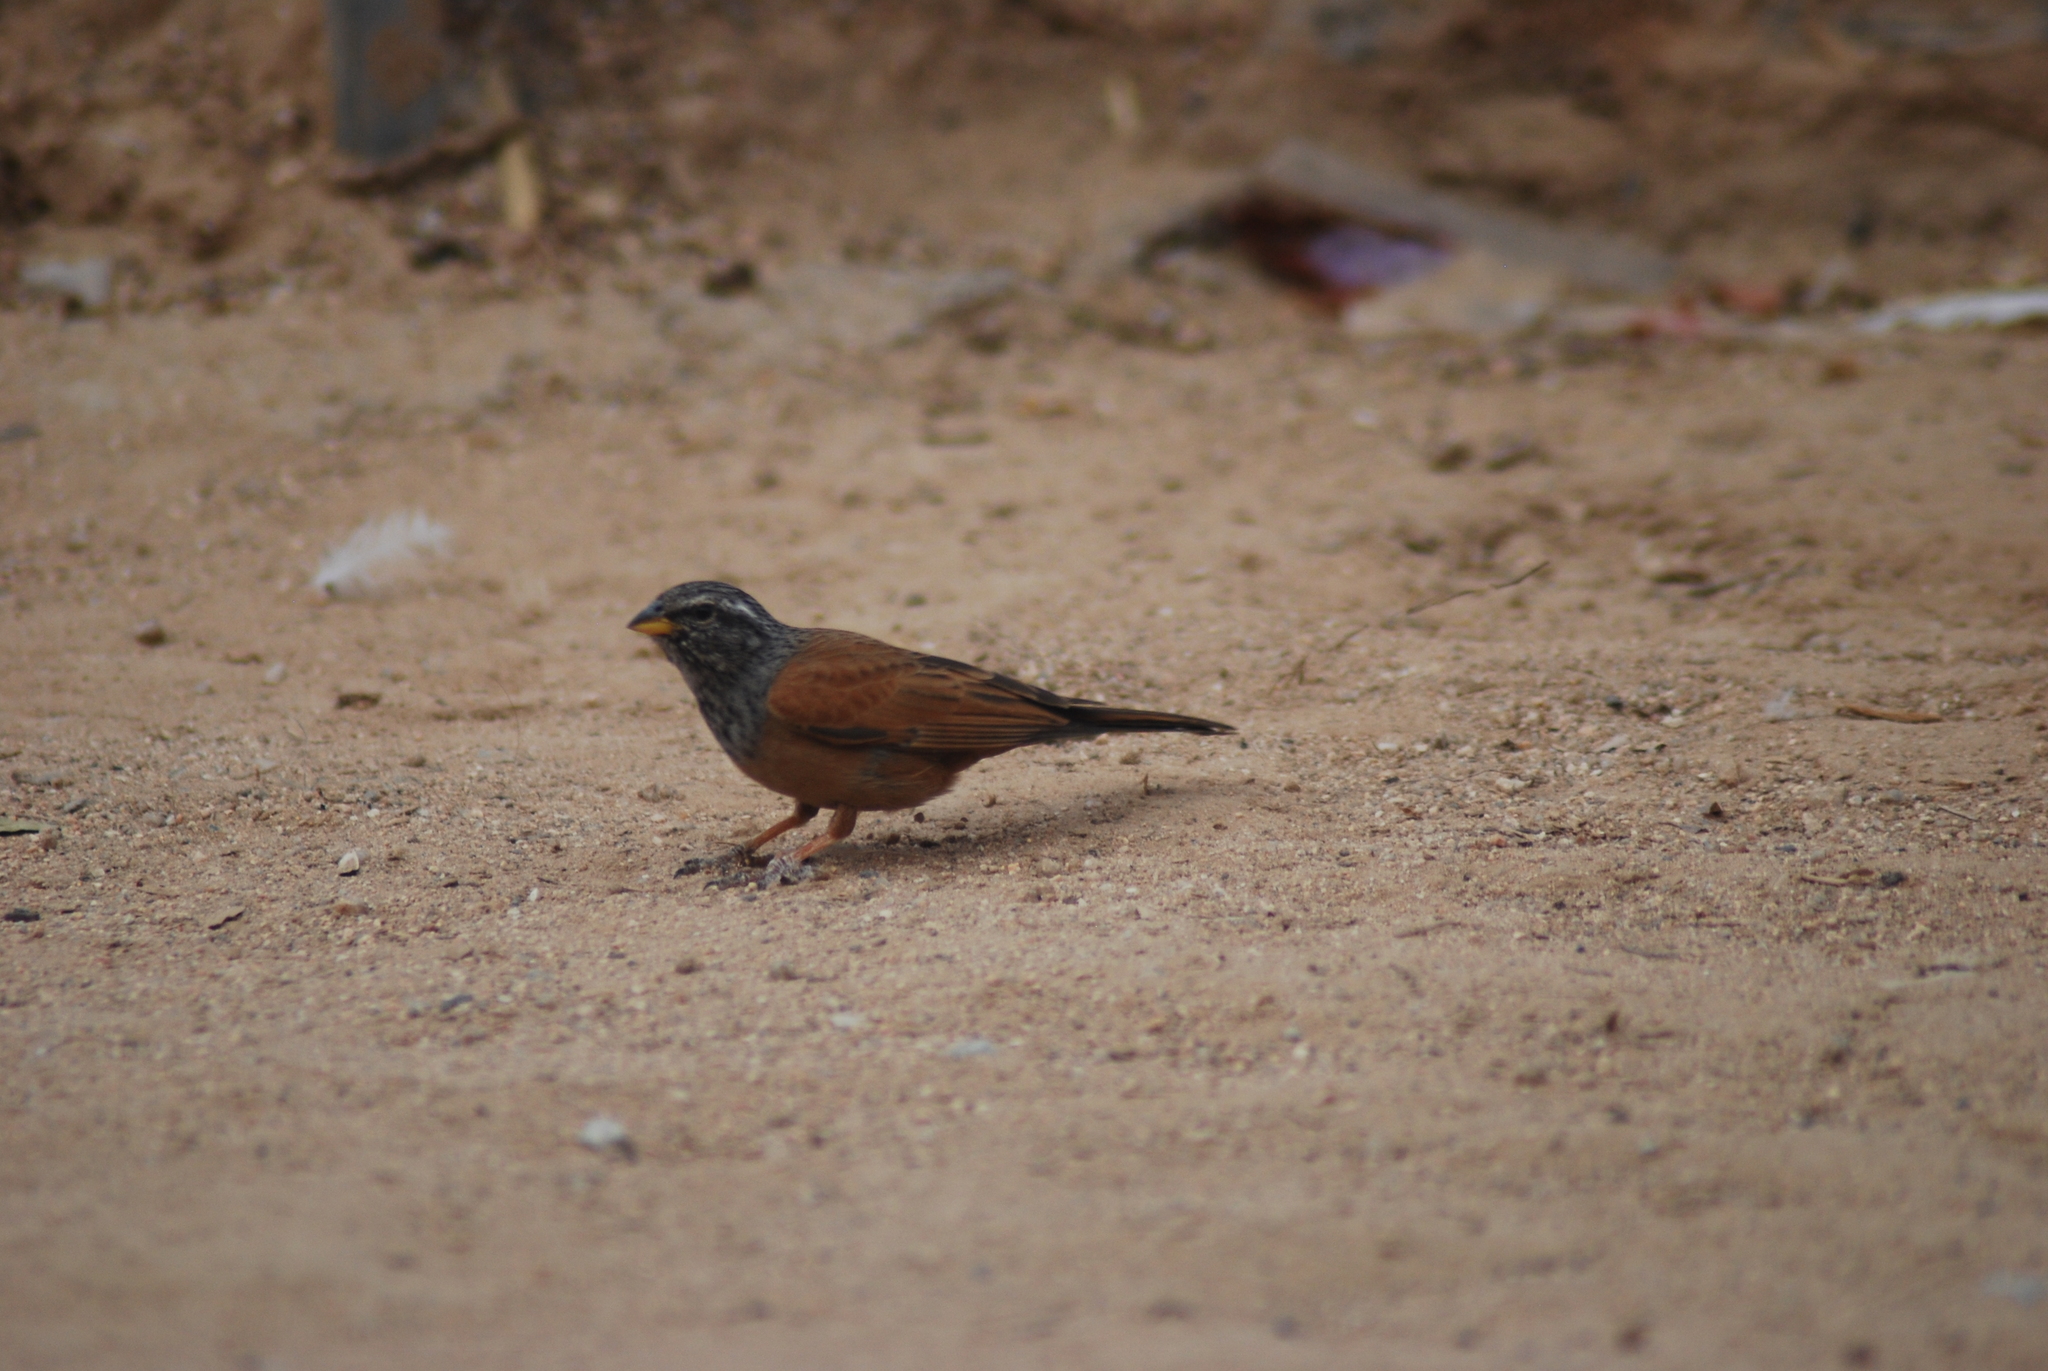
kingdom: Animalia
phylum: Chordata
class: Aves
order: Passeriformes
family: Emberizidae
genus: Emberiza
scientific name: Emberiza sahari
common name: House bunting
